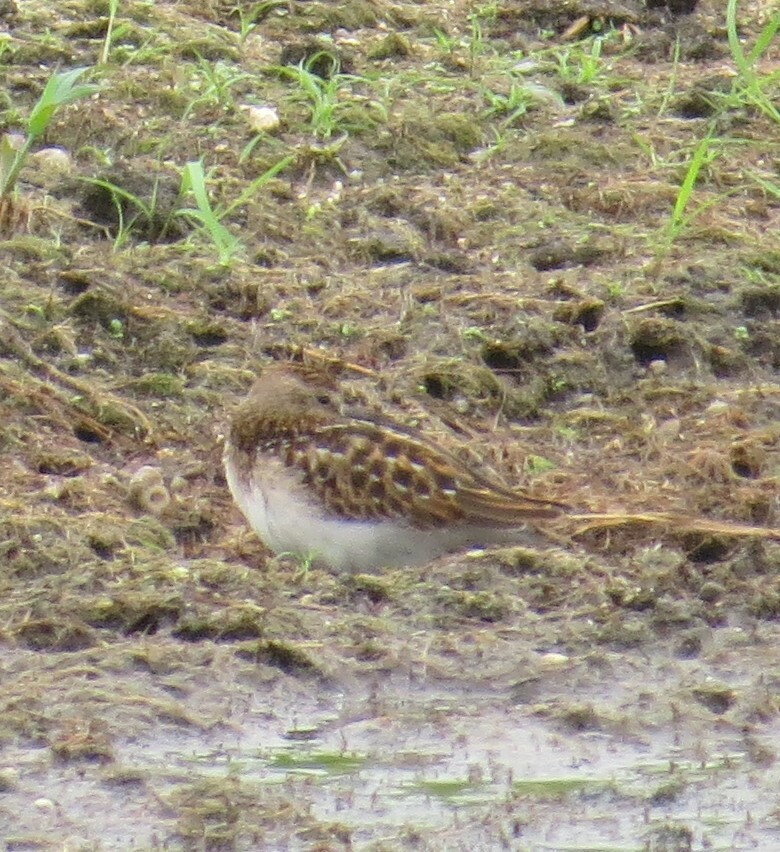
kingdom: Animalia
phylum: Chordata
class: Aves
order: Charadriiformes
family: Scolopacidae
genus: Calidris
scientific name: Calidris minutilla
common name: Least sandpiper
